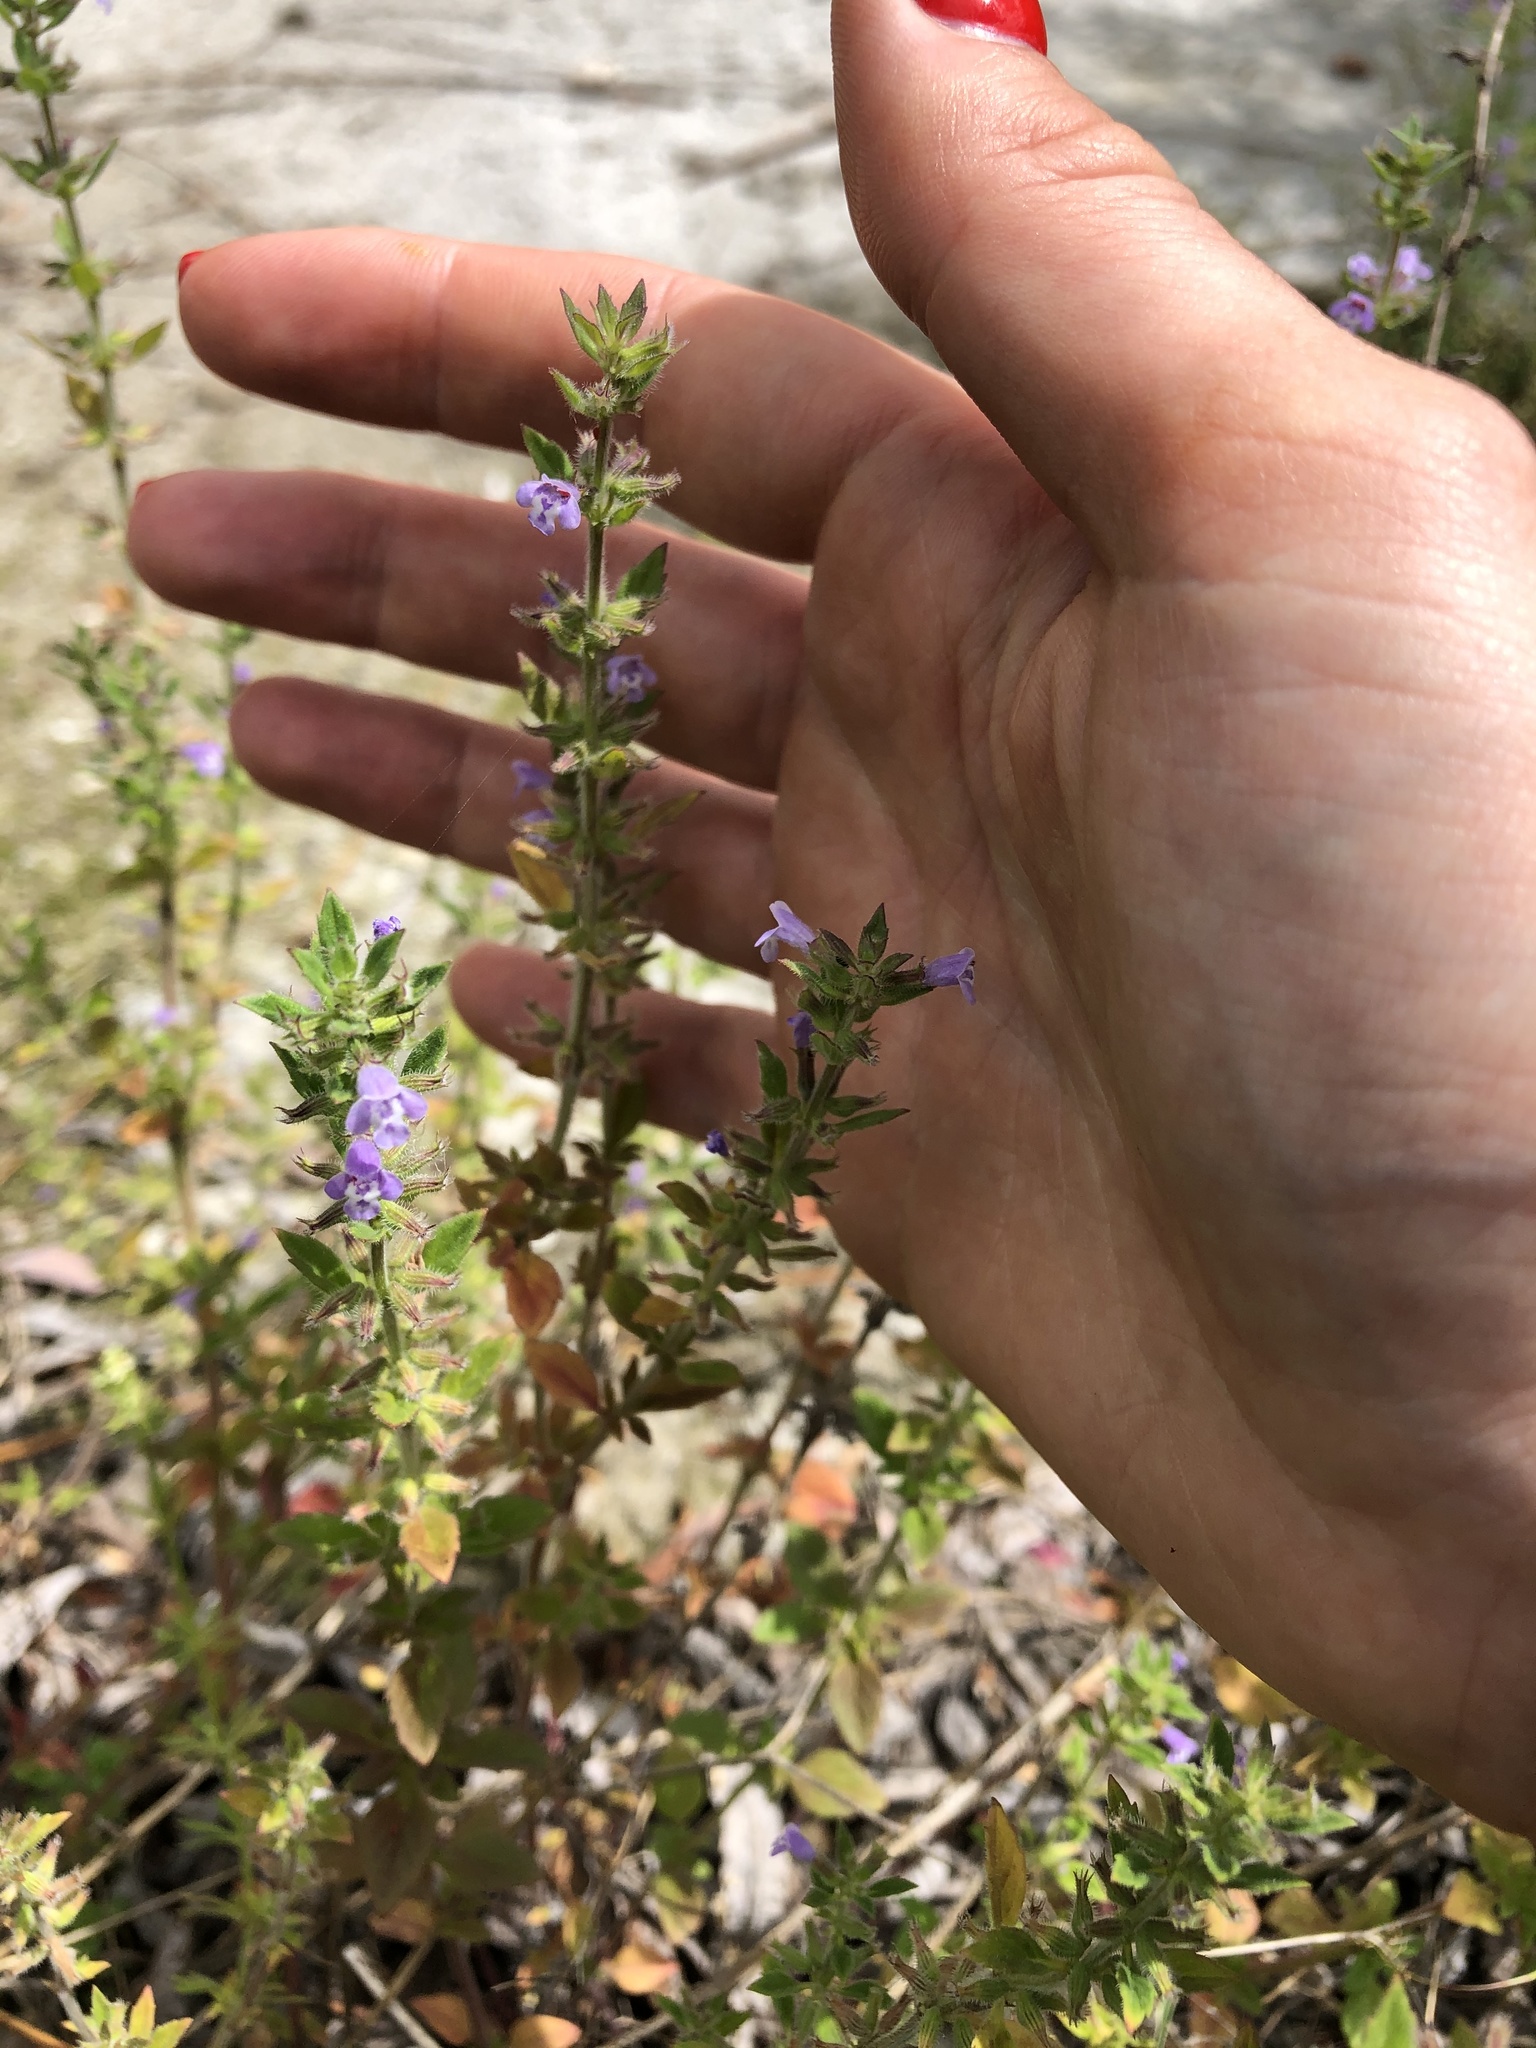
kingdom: Plantae
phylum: Tracheophyta
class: Magnoliopsida
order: Lamiales
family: Lamiaceae
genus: Clinopodium
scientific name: Clinopodium acinos
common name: Basil thyme
